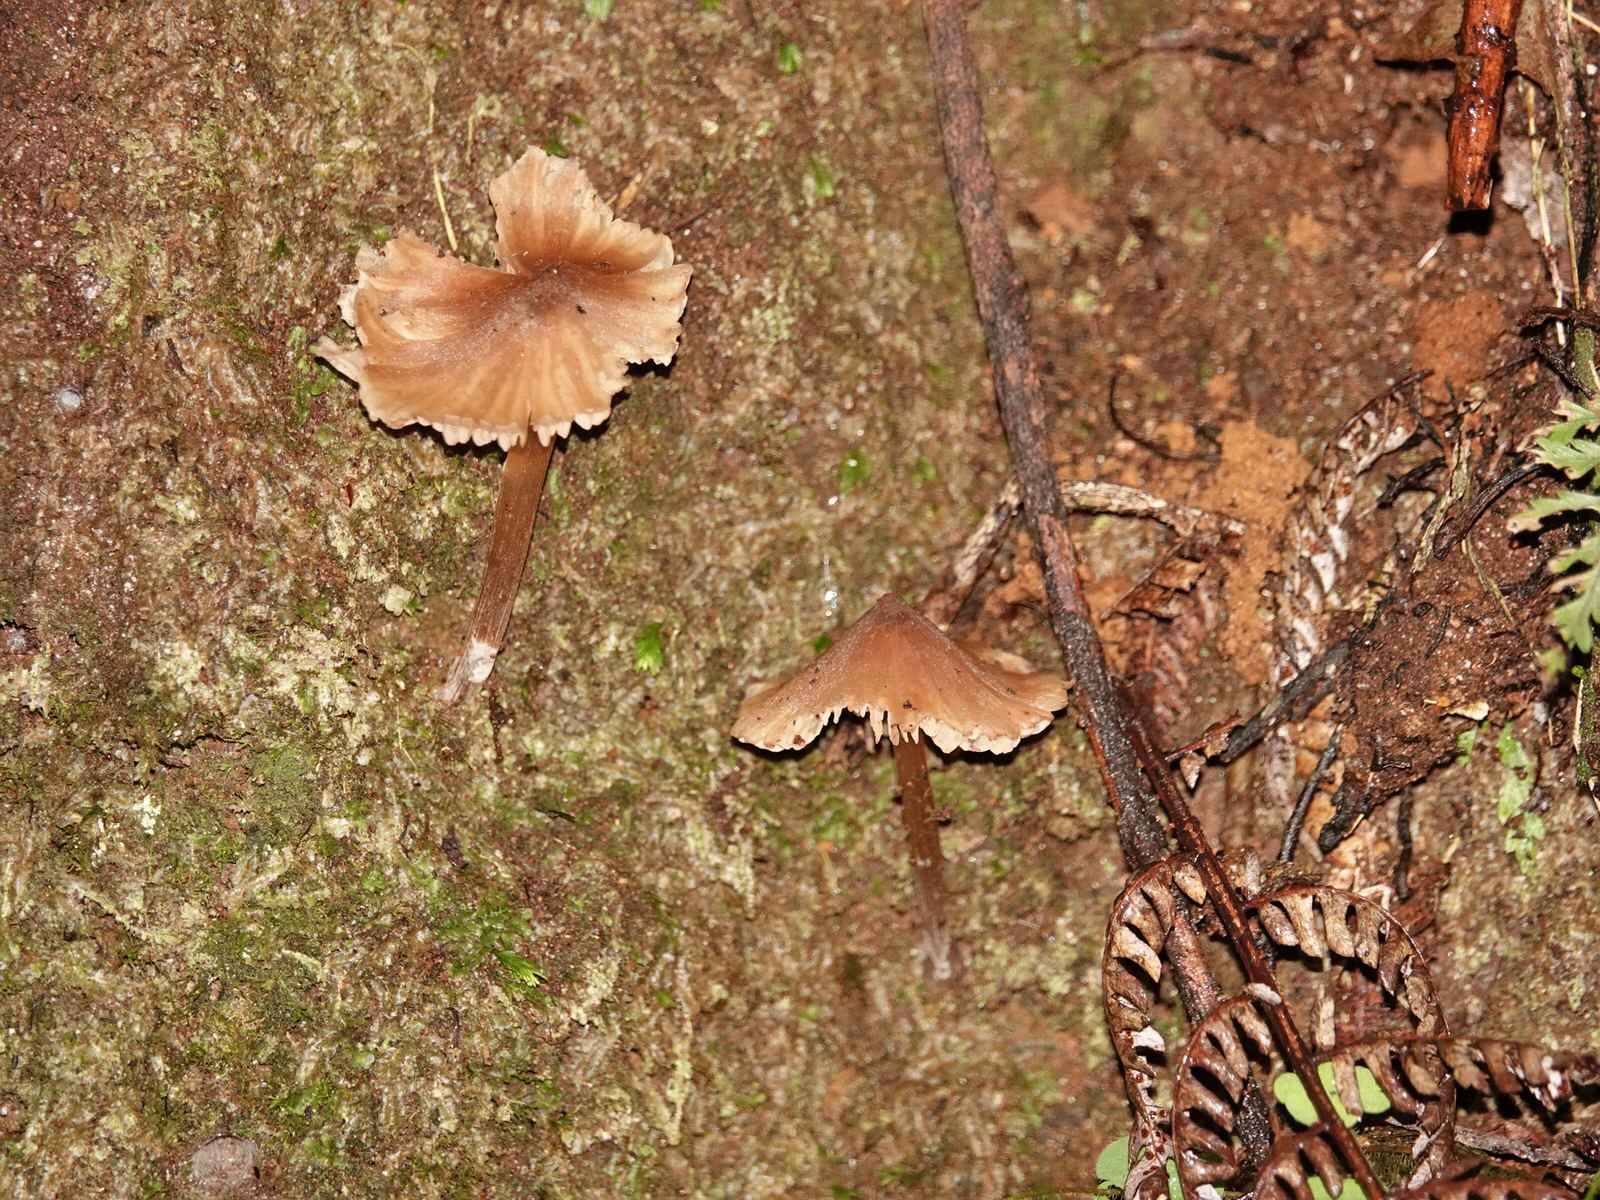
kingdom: Animalia
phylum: Mollusca
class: Gastropoda
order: Stylommatophora
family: Arionidae
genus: Kobeltia
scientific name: Kobeltia
